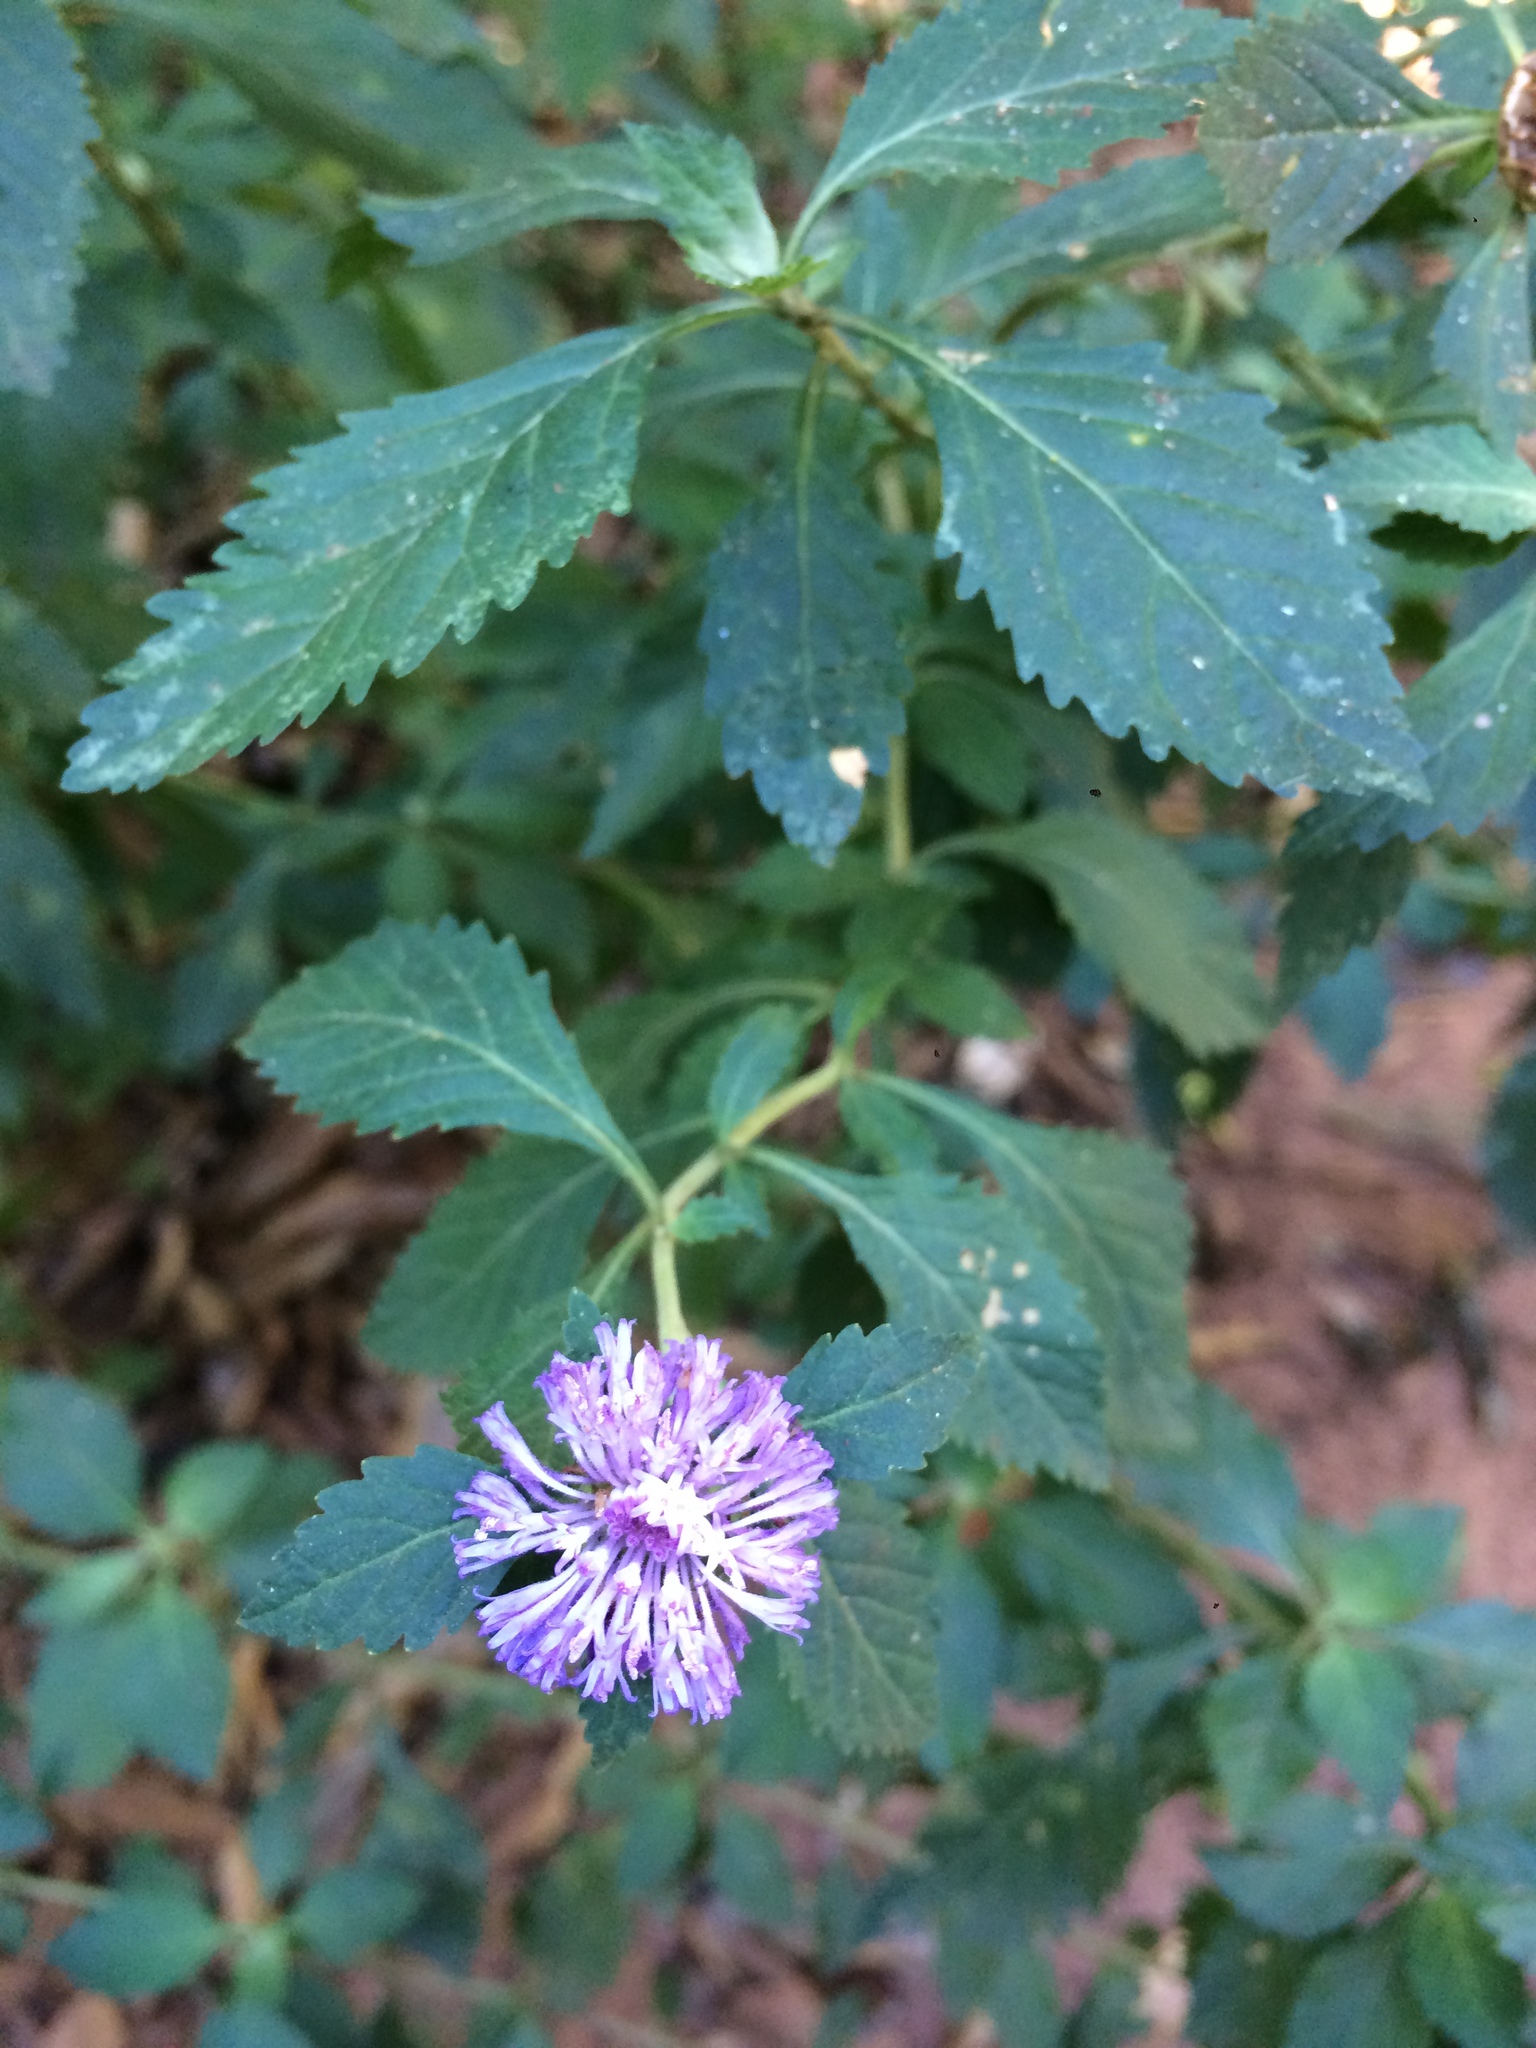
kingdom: Plantae
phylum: Tracheophyta
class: Magnoliopsida
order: Asterales
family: Asteraceae
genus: Centratherum
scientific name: Centratherum punctatum
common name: Larkdaisy
